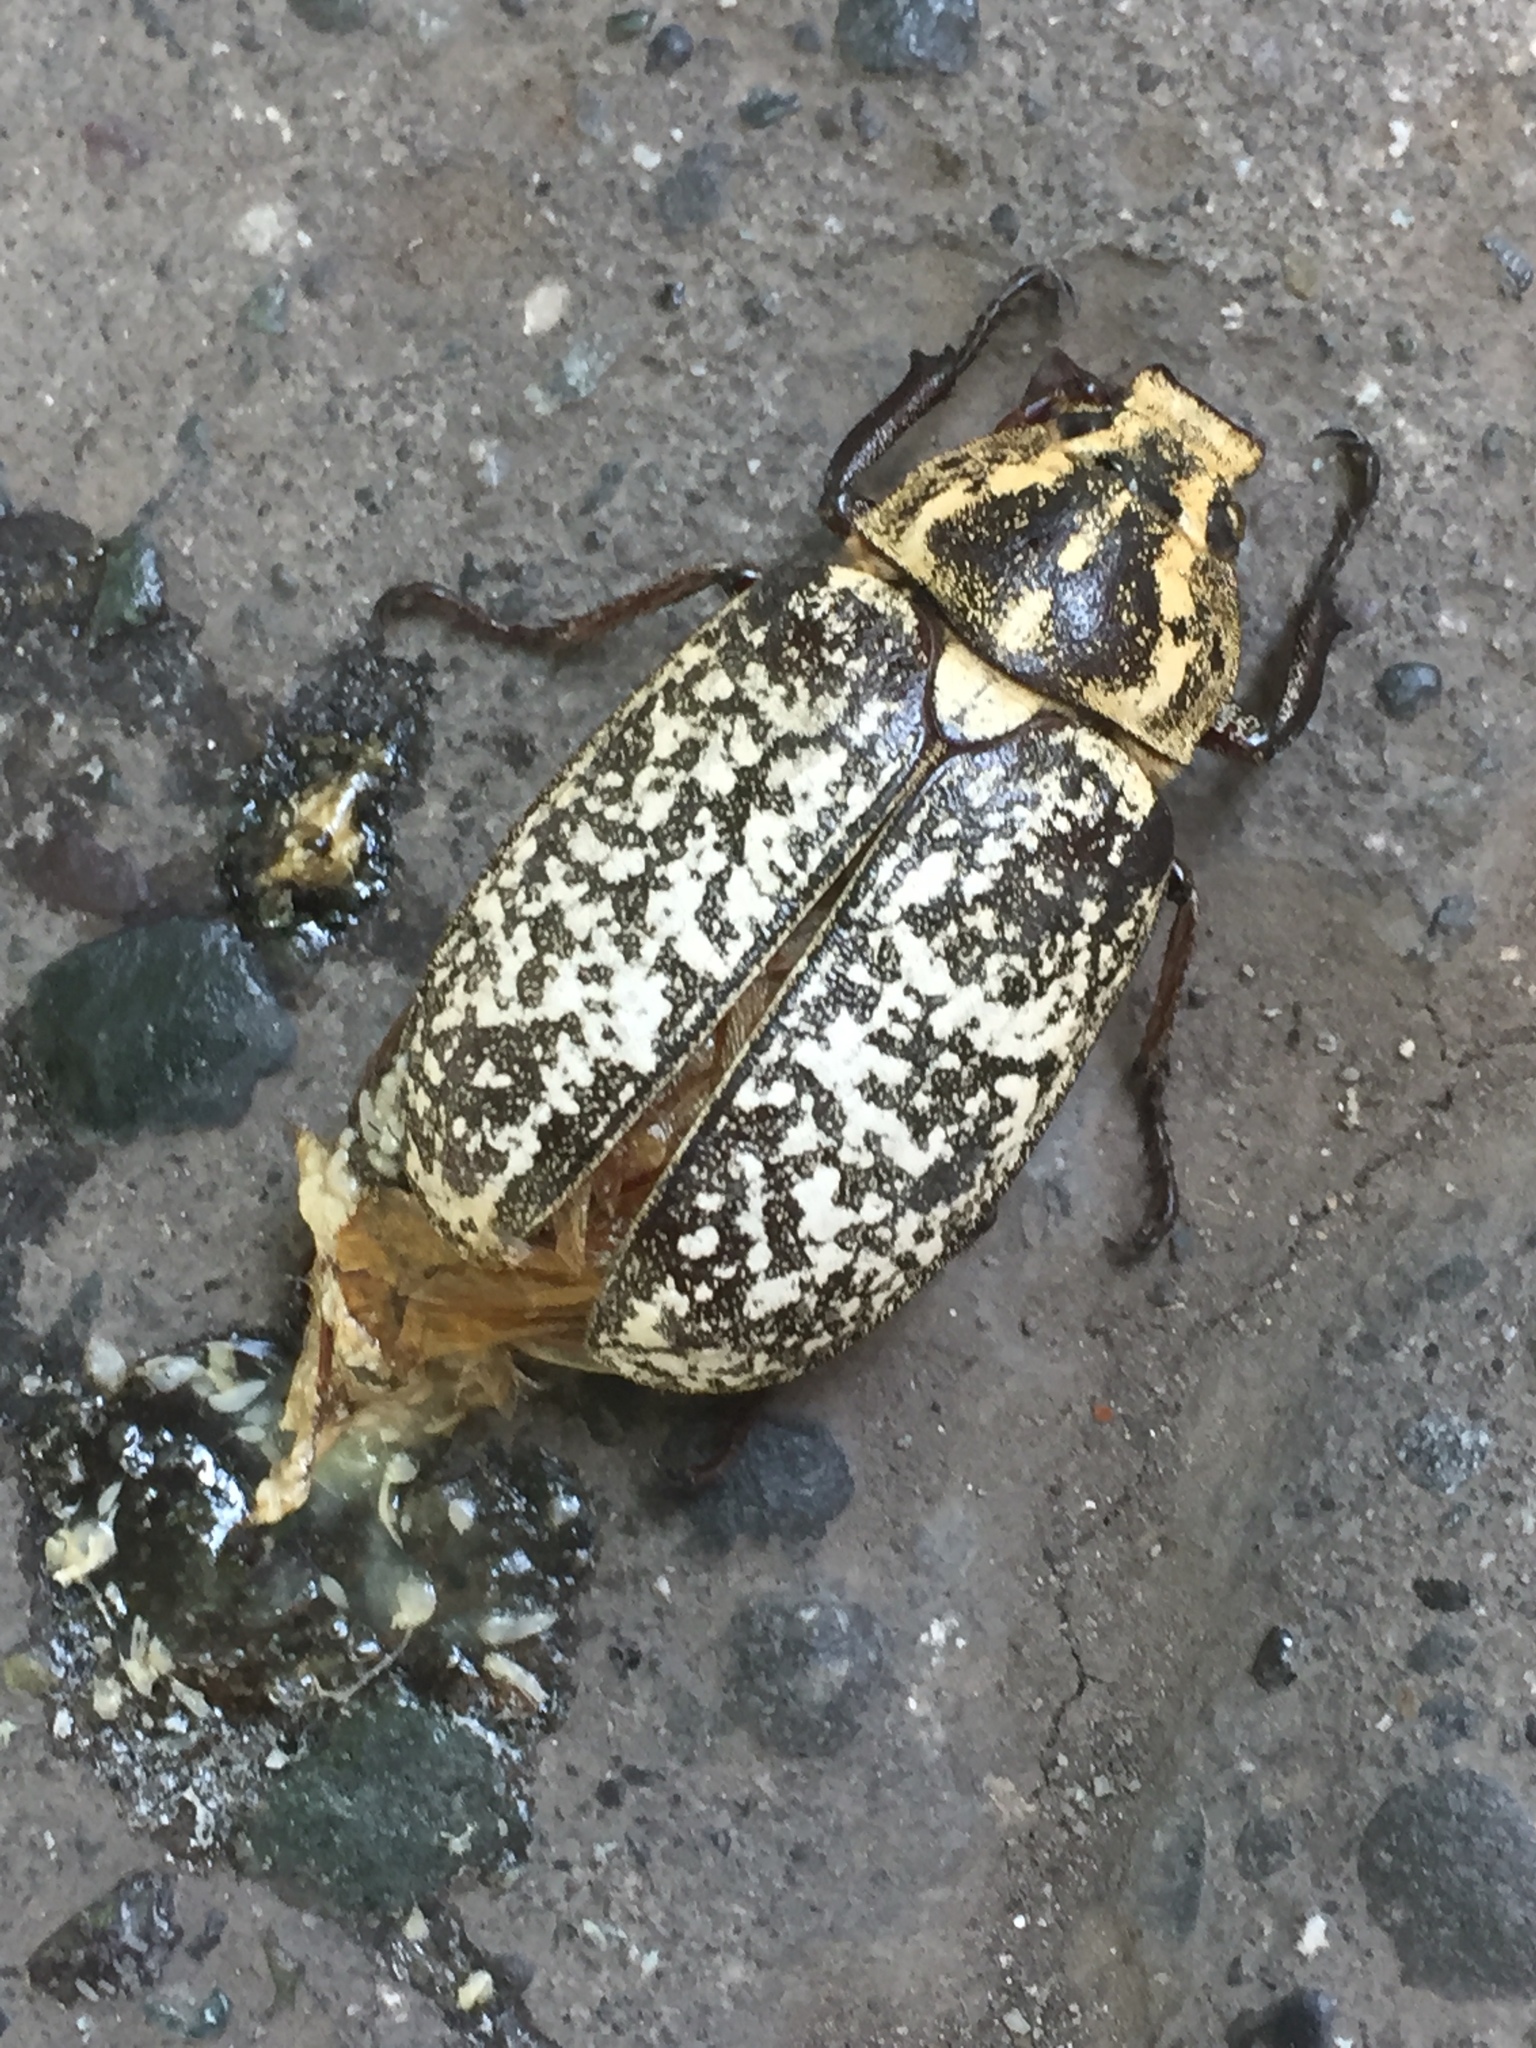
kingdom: Animalia
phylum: Arthropoda
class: Insecta
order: Coleoptera
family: Scarabaeidae
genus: Polyphylla
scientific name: Polyphylla fullo
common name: Pine chafer
